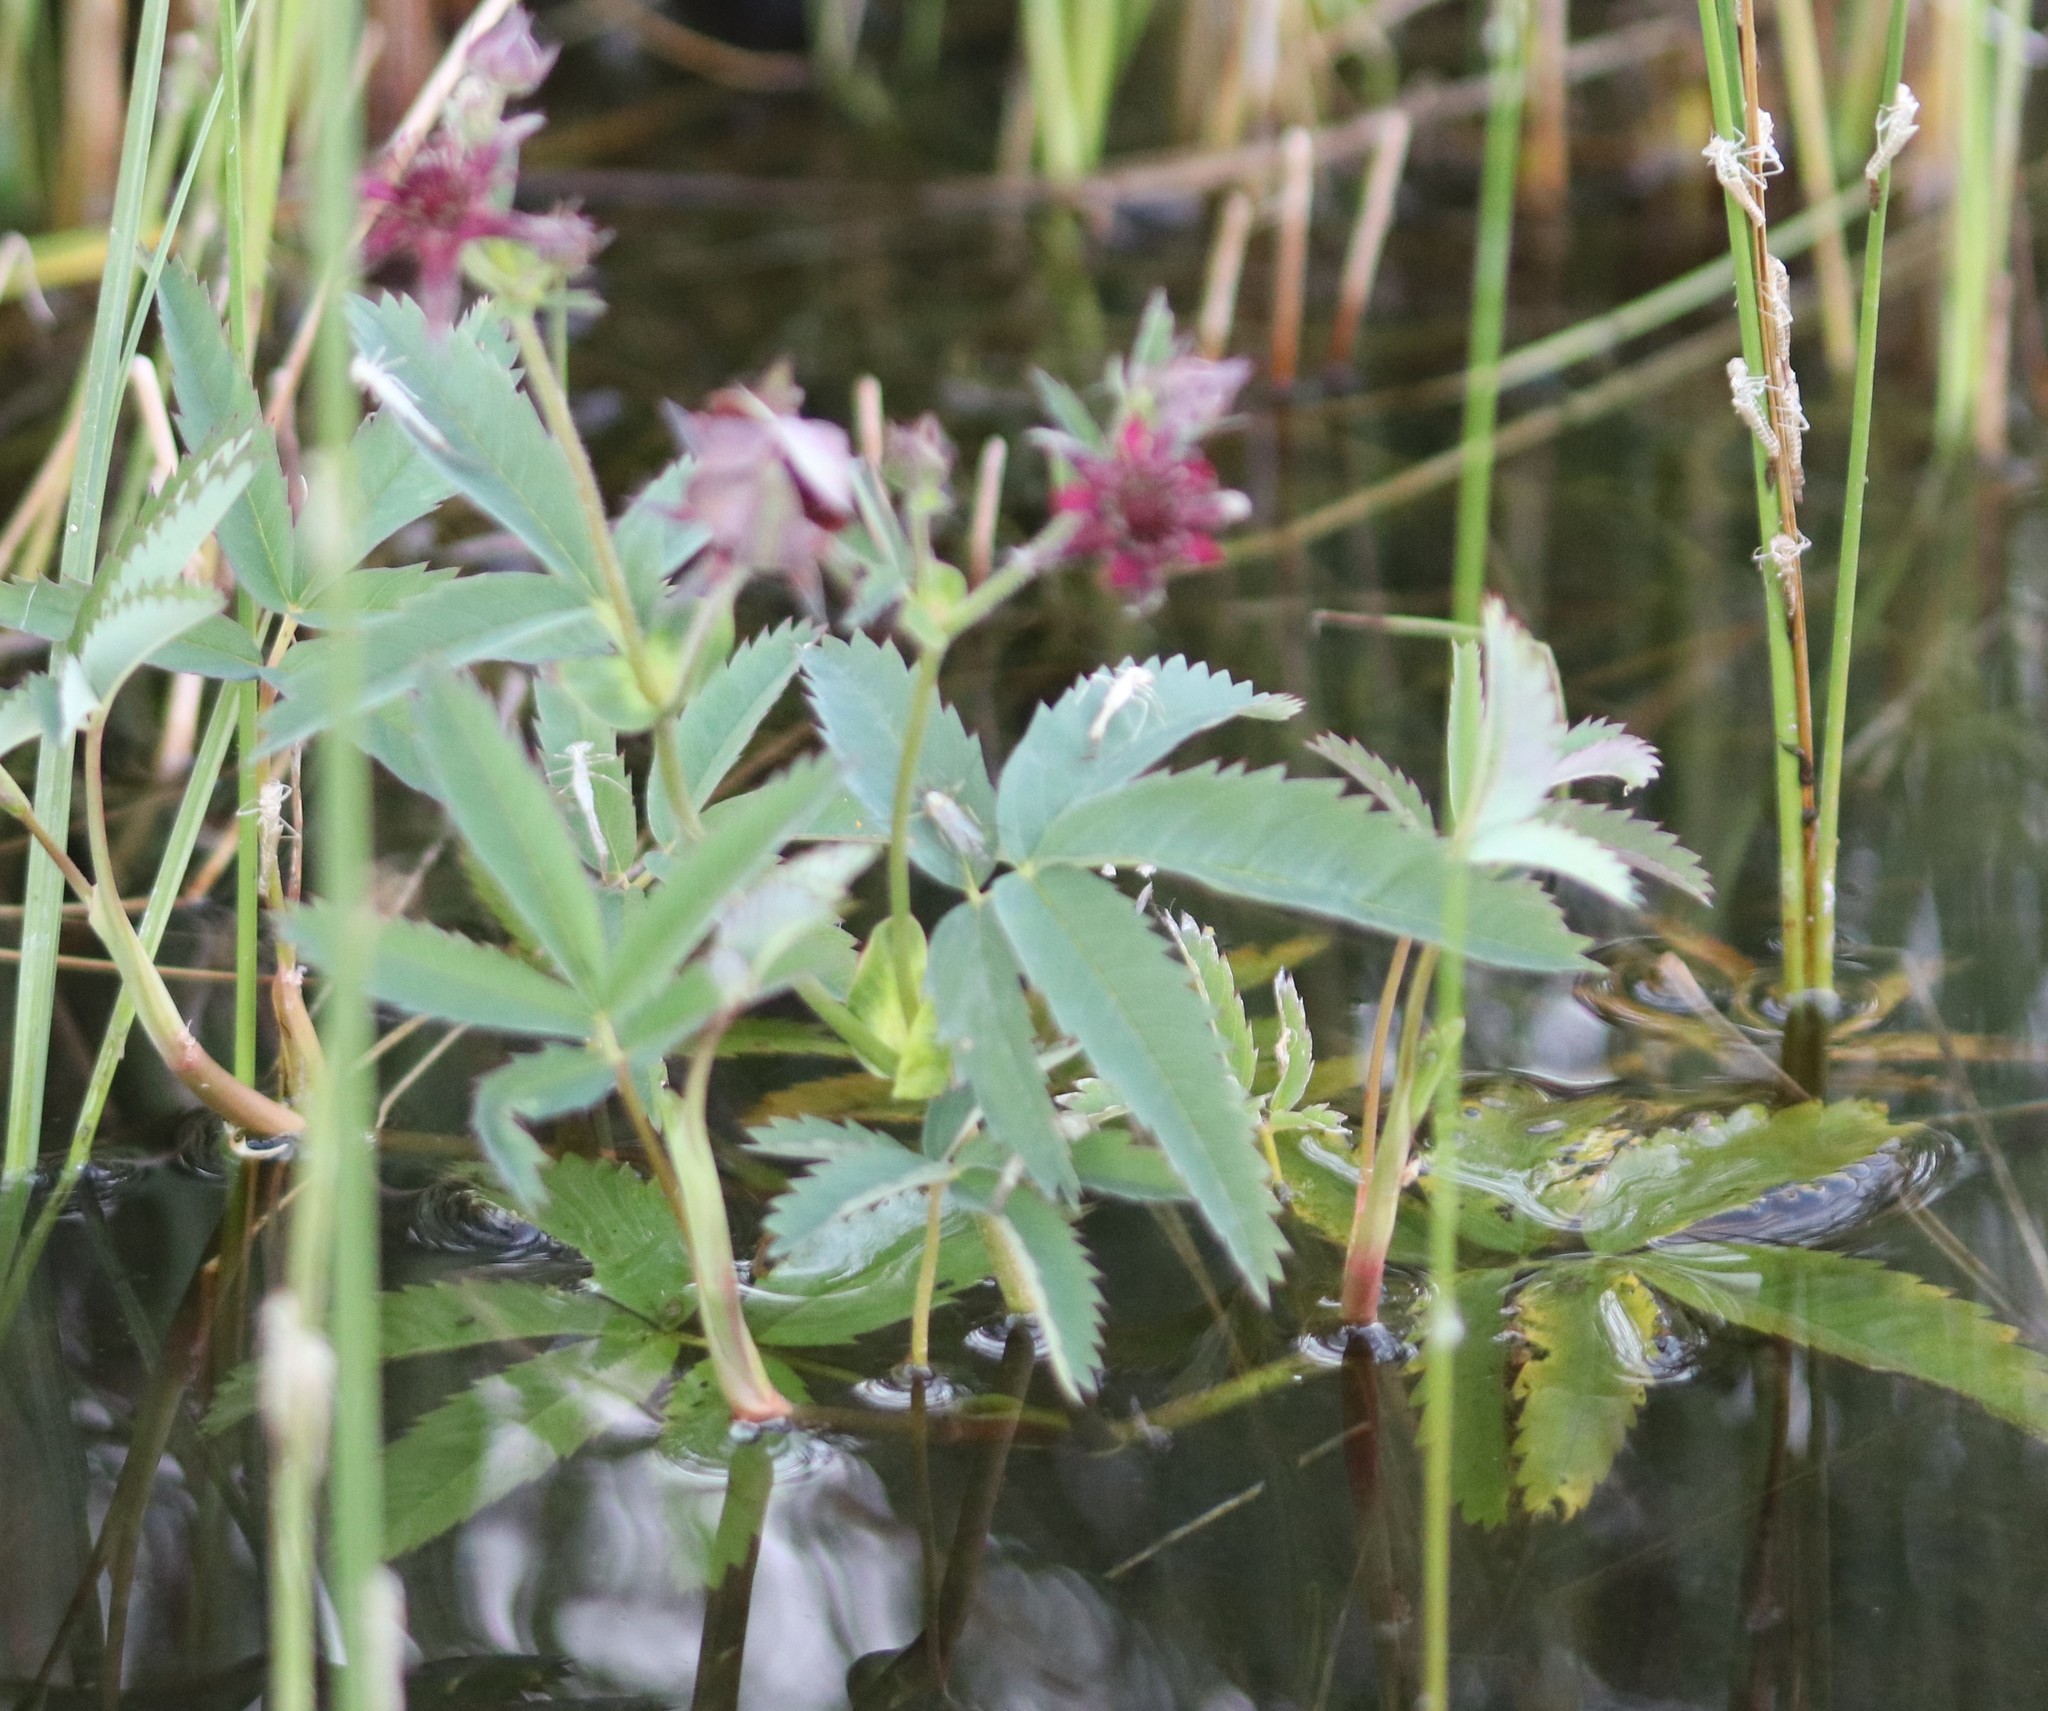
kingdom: Plantae
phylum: Tracheophyta
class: Magnoliopsida
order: Rosales
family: Rosaceae
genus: Comarum
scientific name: Comarum palustre
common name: Marsh cinquefoil
